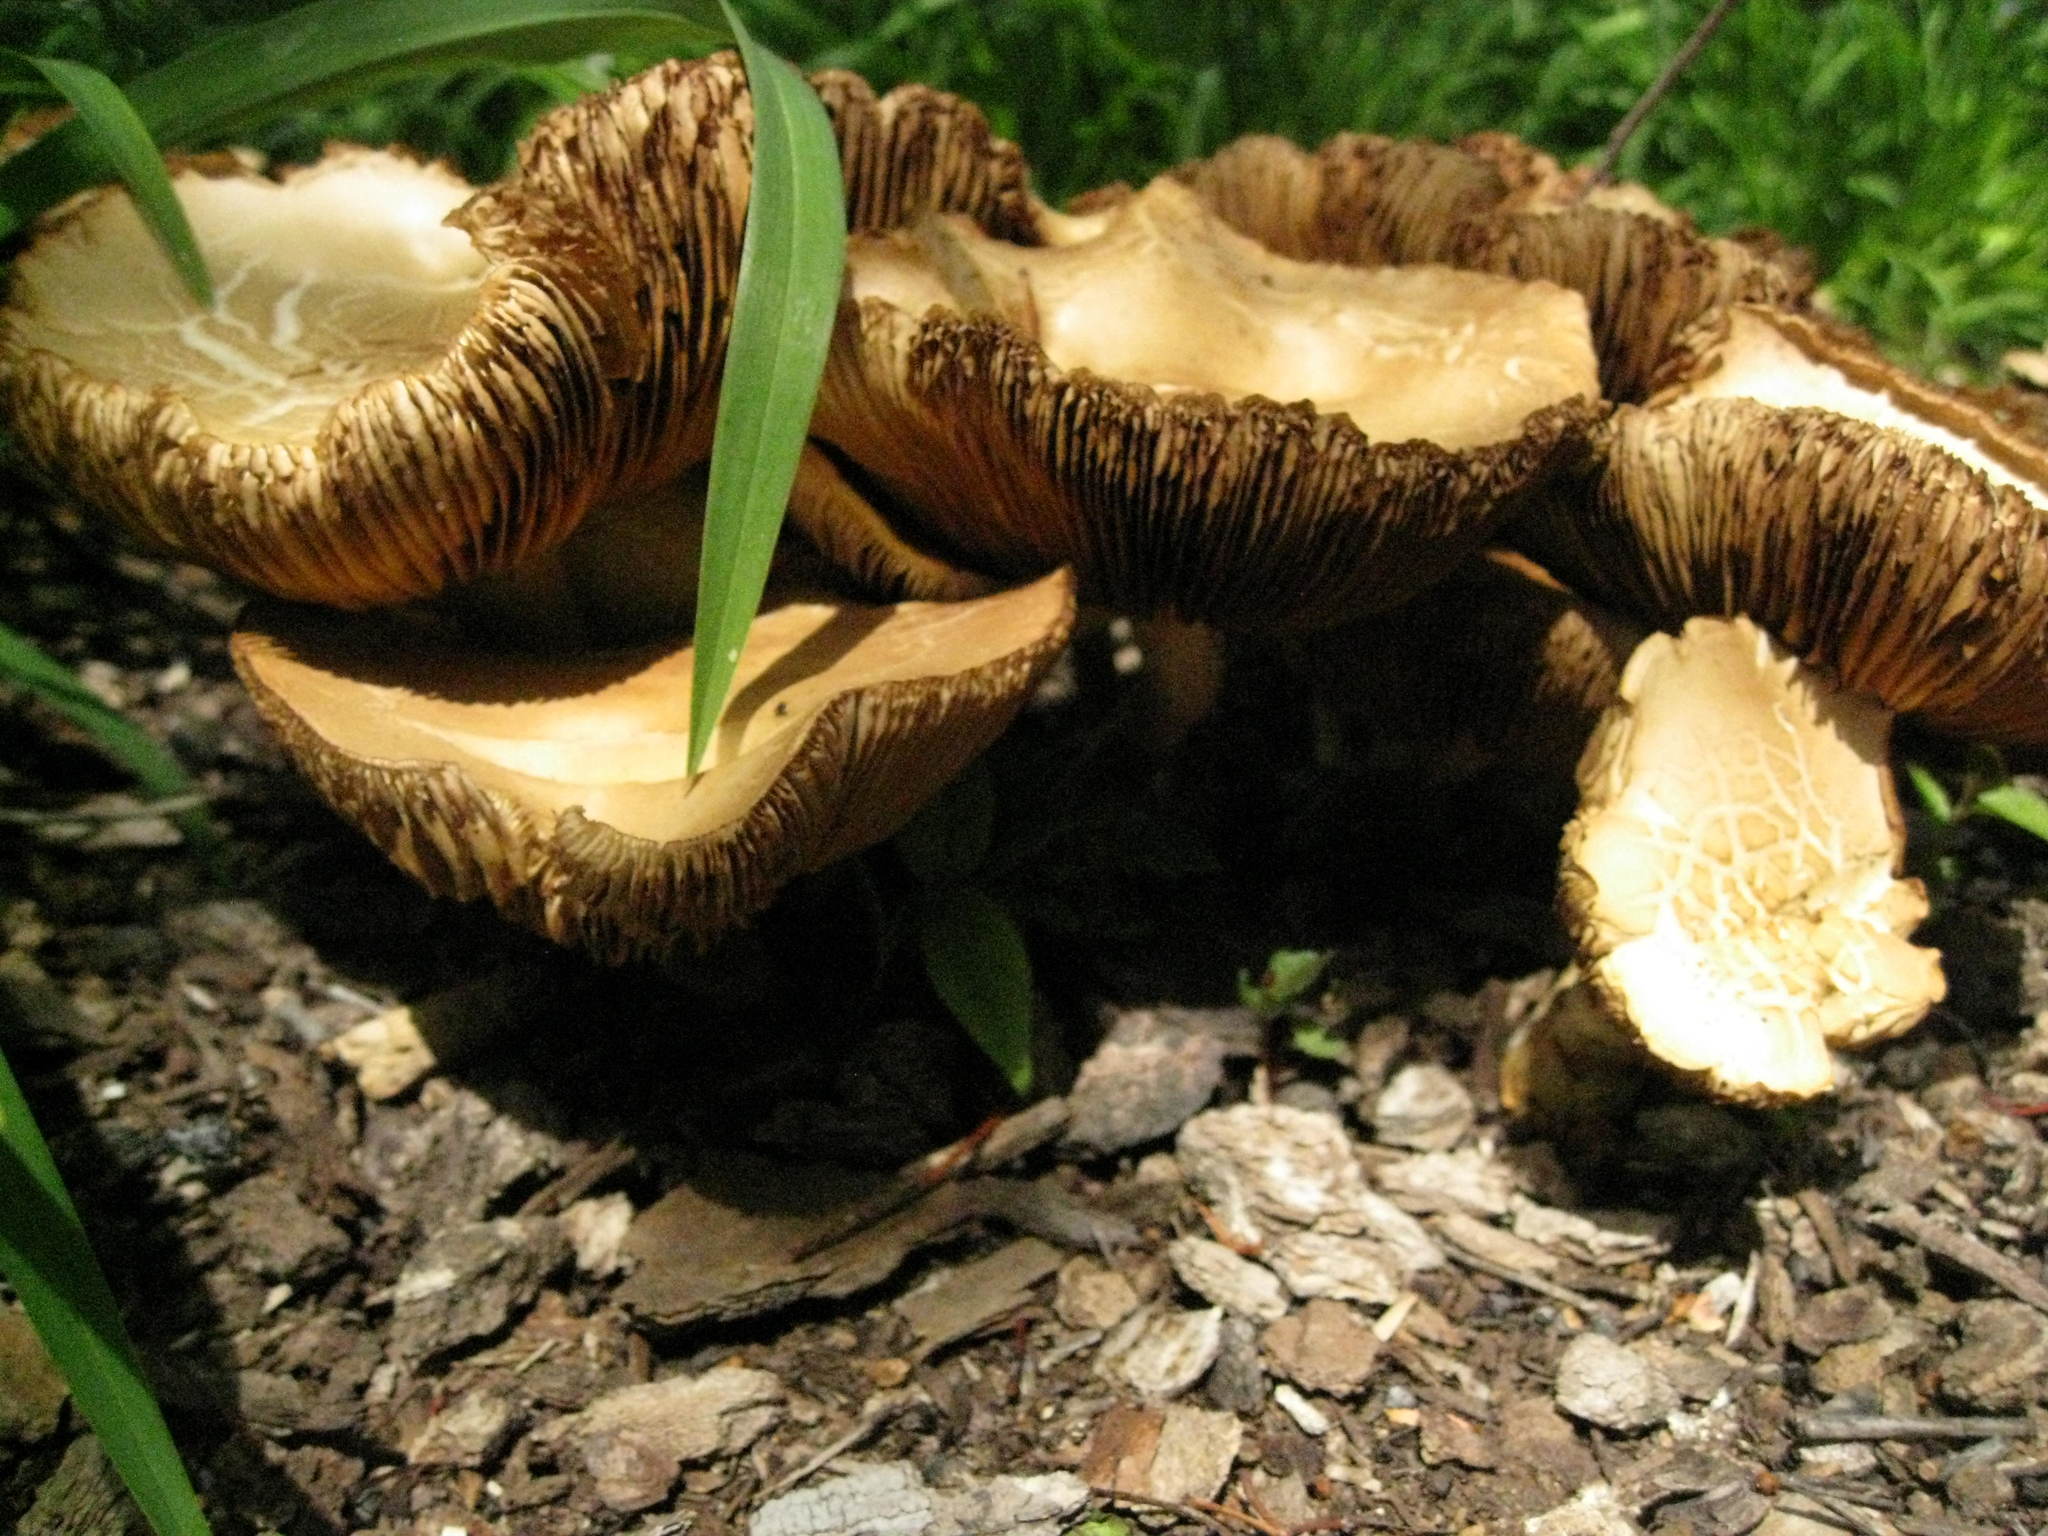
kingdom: Fungi
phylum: Basidiomycota
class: Agaricomycetes
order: Agaricales
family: Strophariaceae
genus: Agrocybe
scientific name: Agrocybe praecox
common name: Spring fieldcap
